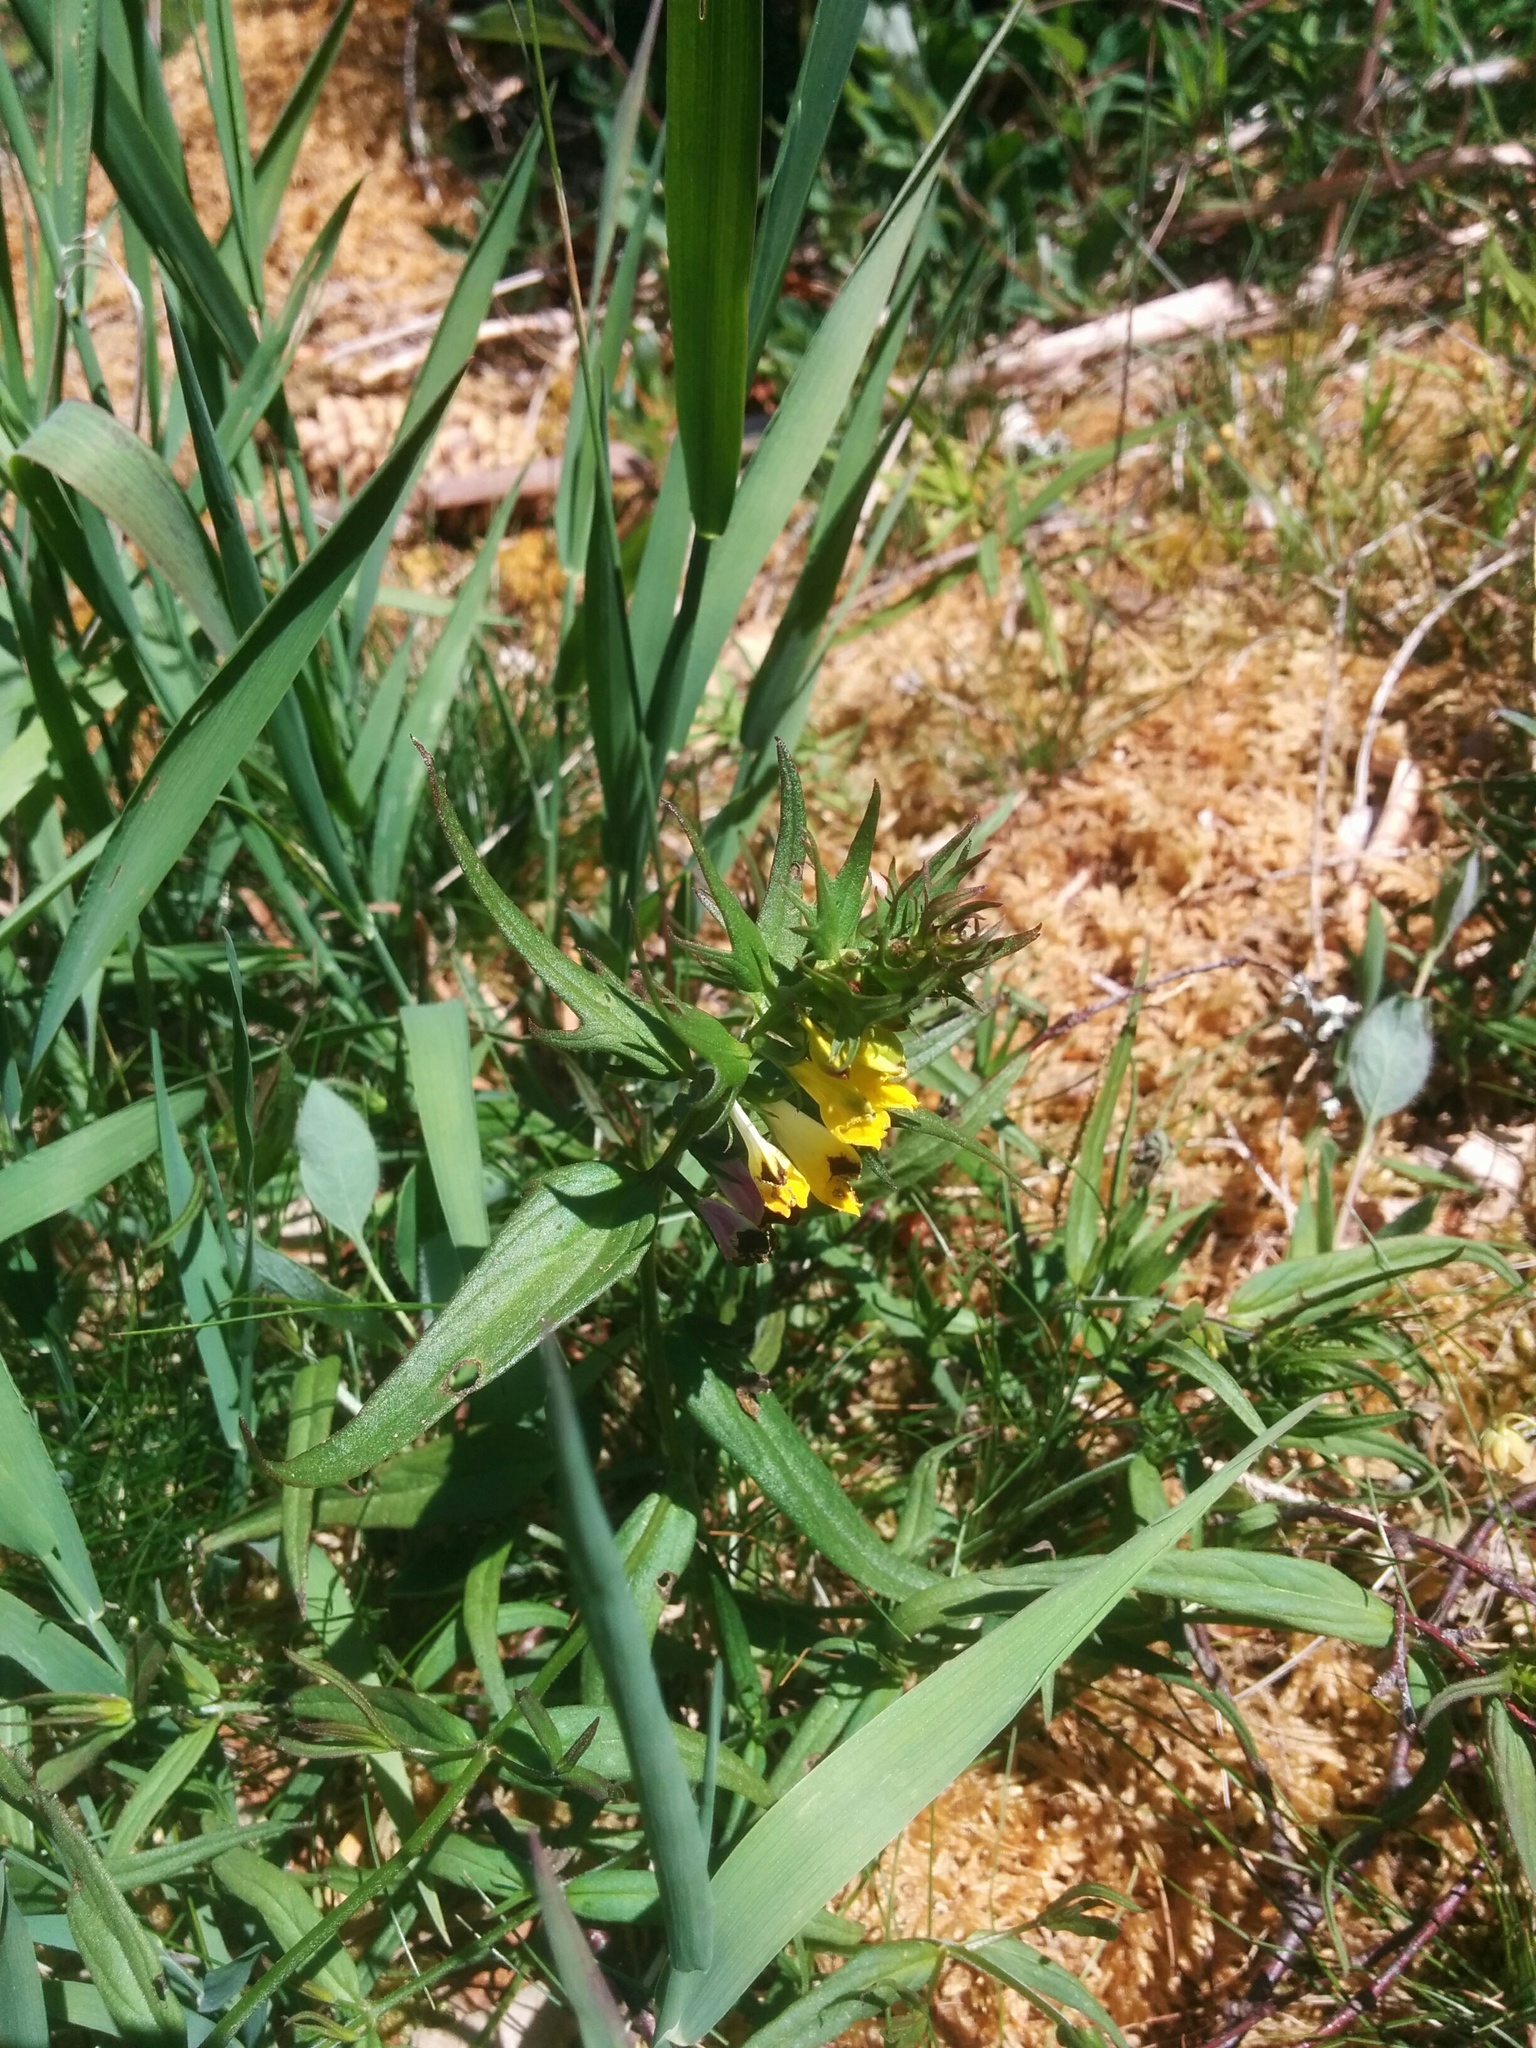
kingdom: Plantae
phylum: Tracheophyta
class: Magnoliopsida
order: Lamiales
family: Orobanchaceae
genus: Melampyrum
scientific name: Melampyrum pratense
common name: Common cow-wheat
